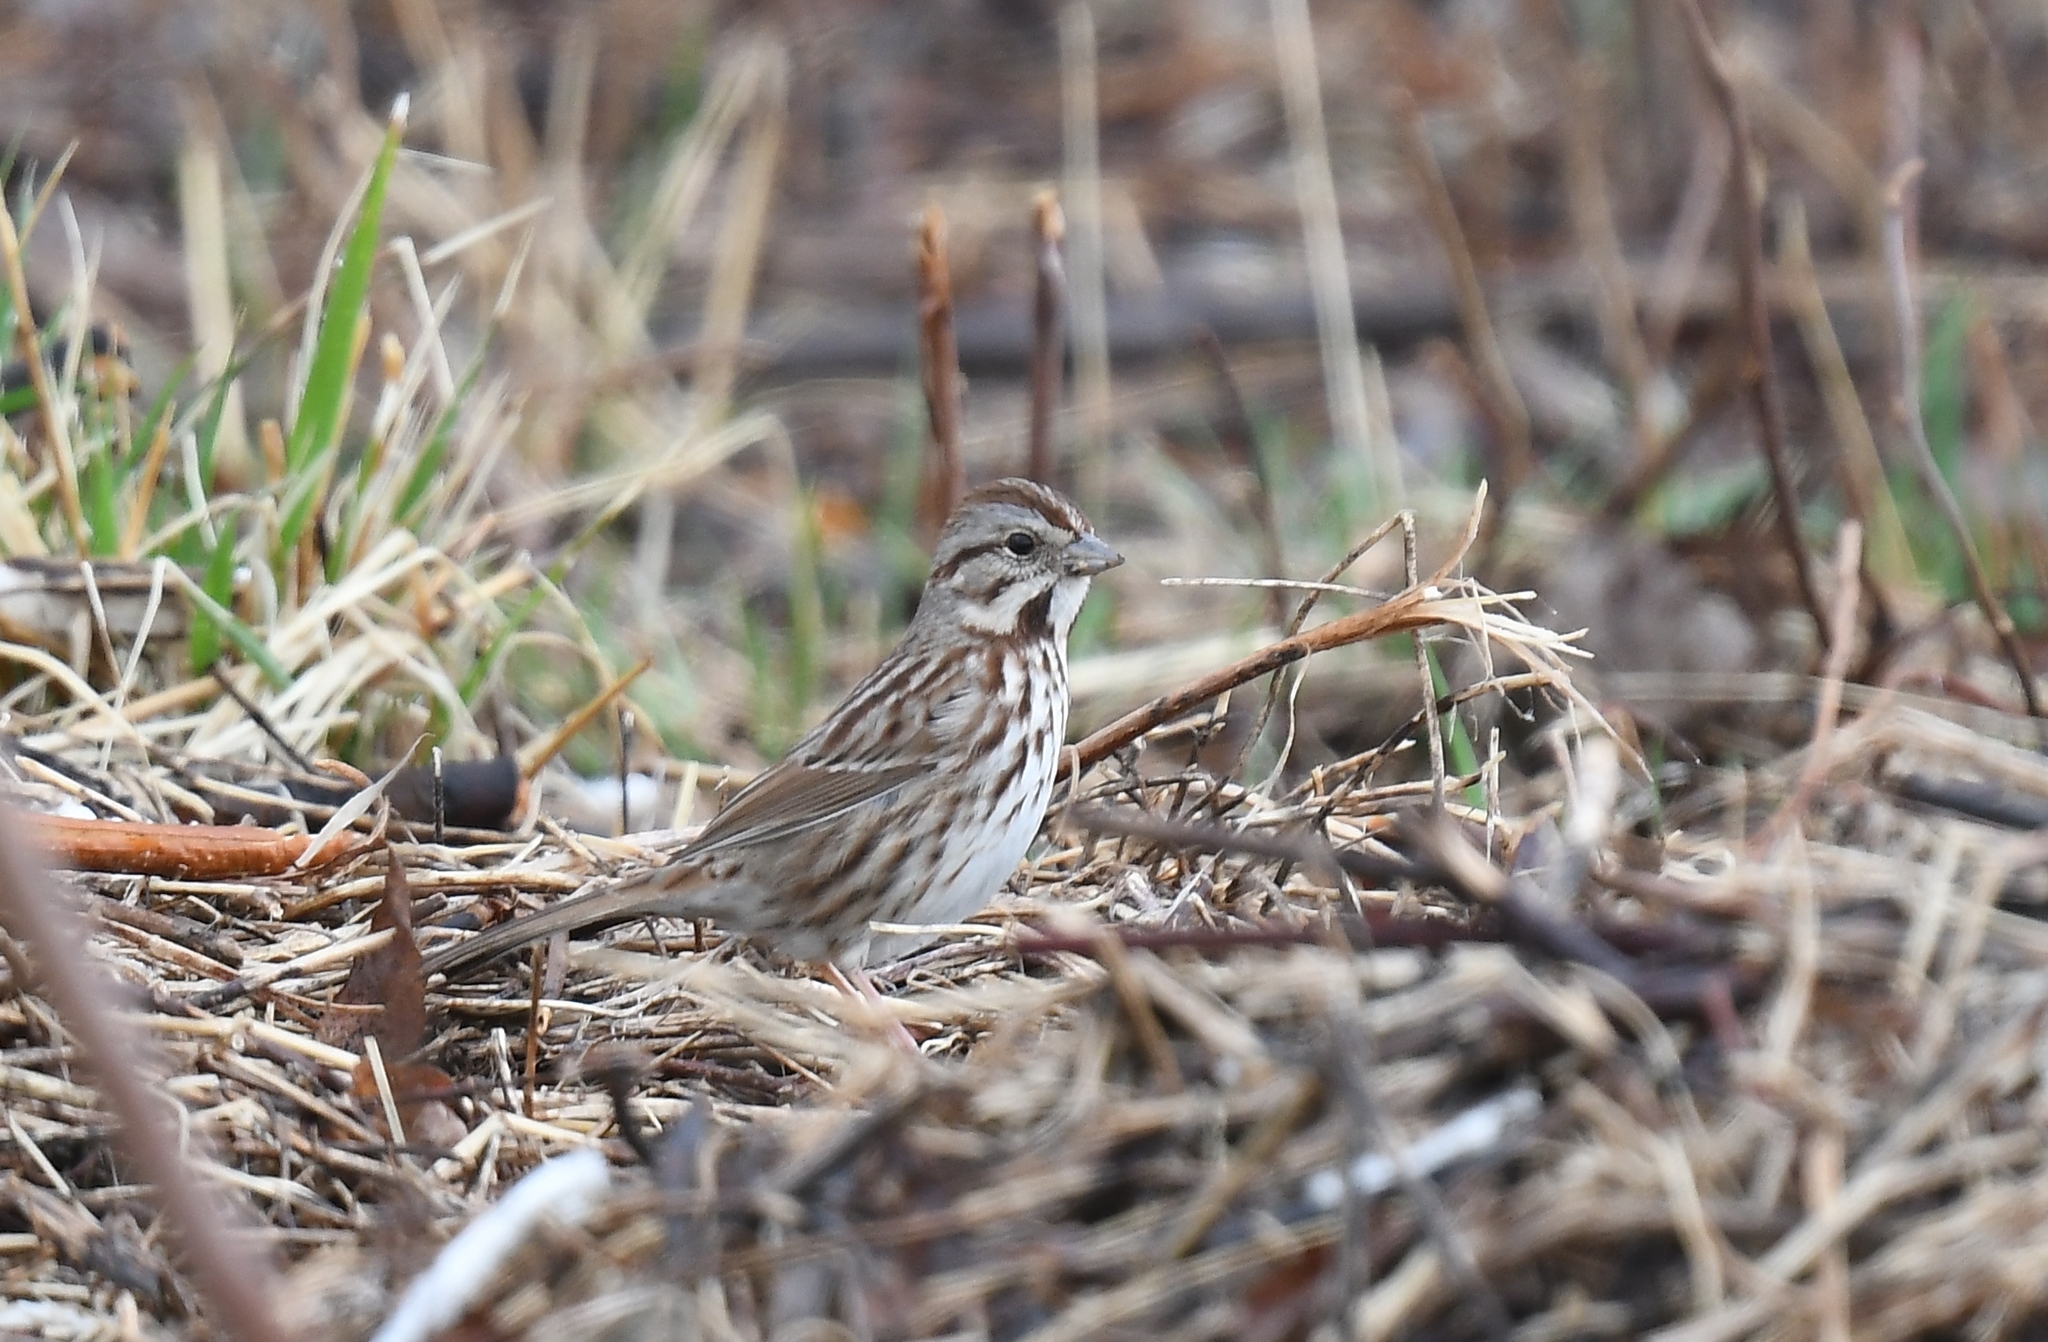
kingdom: Animalia
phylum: Chordata
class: Aves
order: Passeriformes
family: Passerellidae
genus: Melospiza
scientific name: Melospiza melodia
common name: Song sparrow
